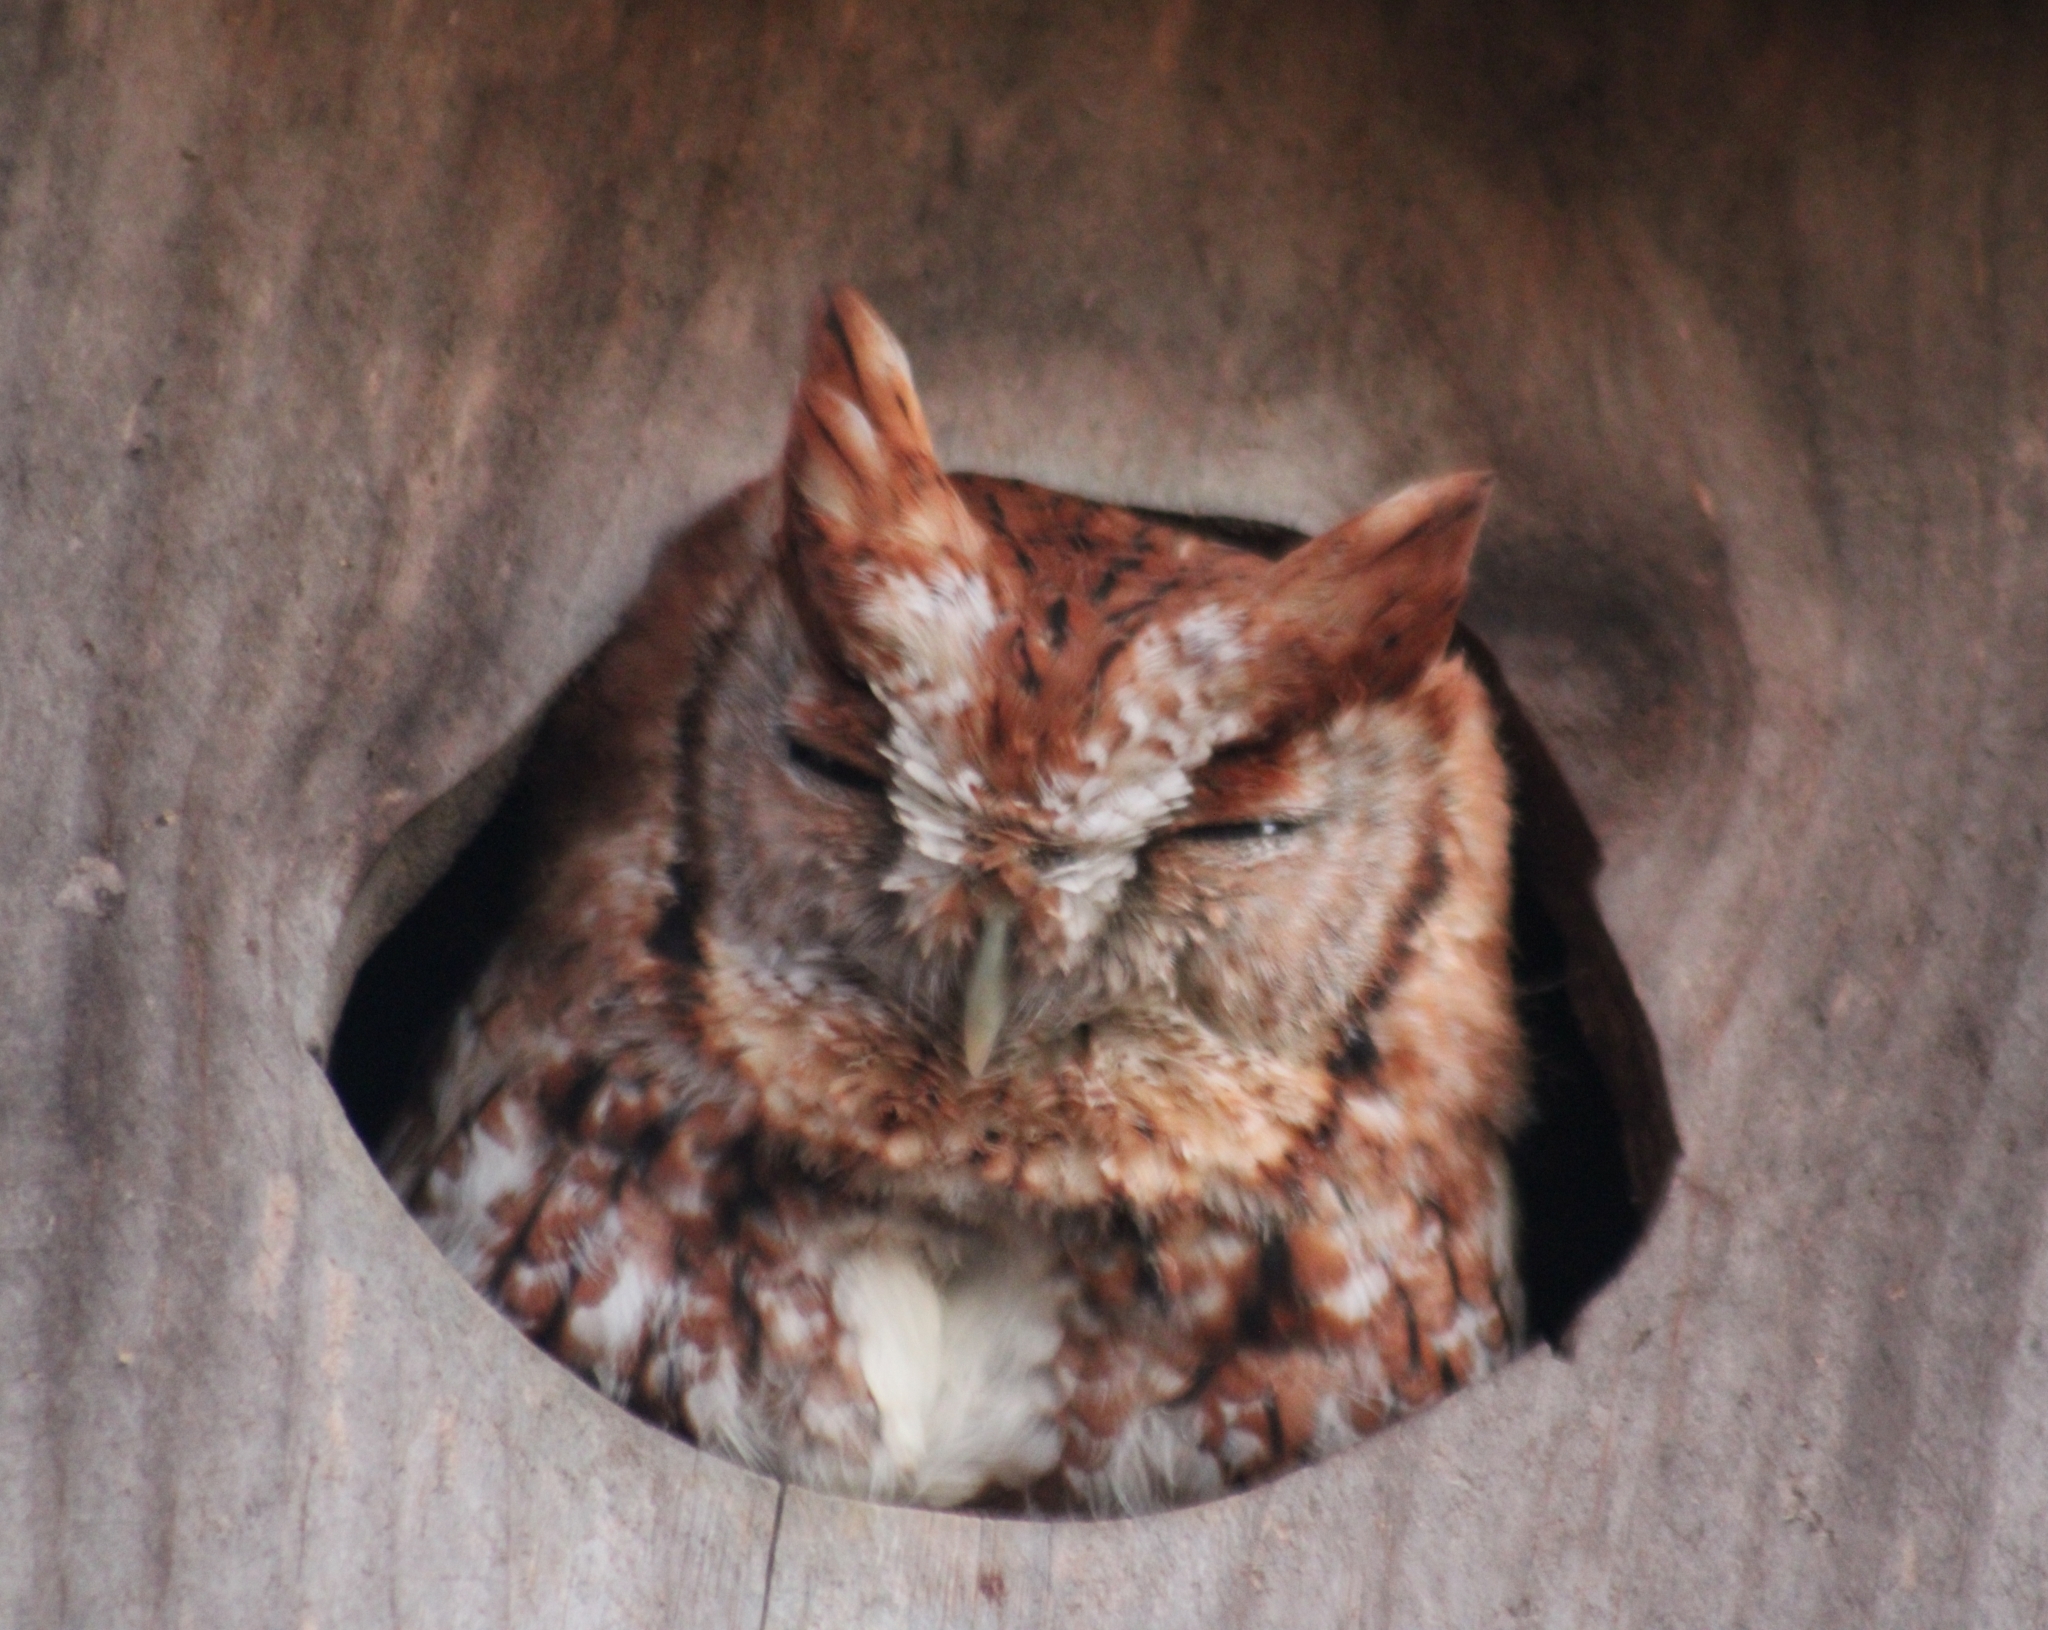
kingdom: Animalia
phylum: Chordata
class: Aves
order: Strigiformes
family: Strigidae
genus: Megascops
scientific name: Megascops asio
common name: Eastern screech-owl
